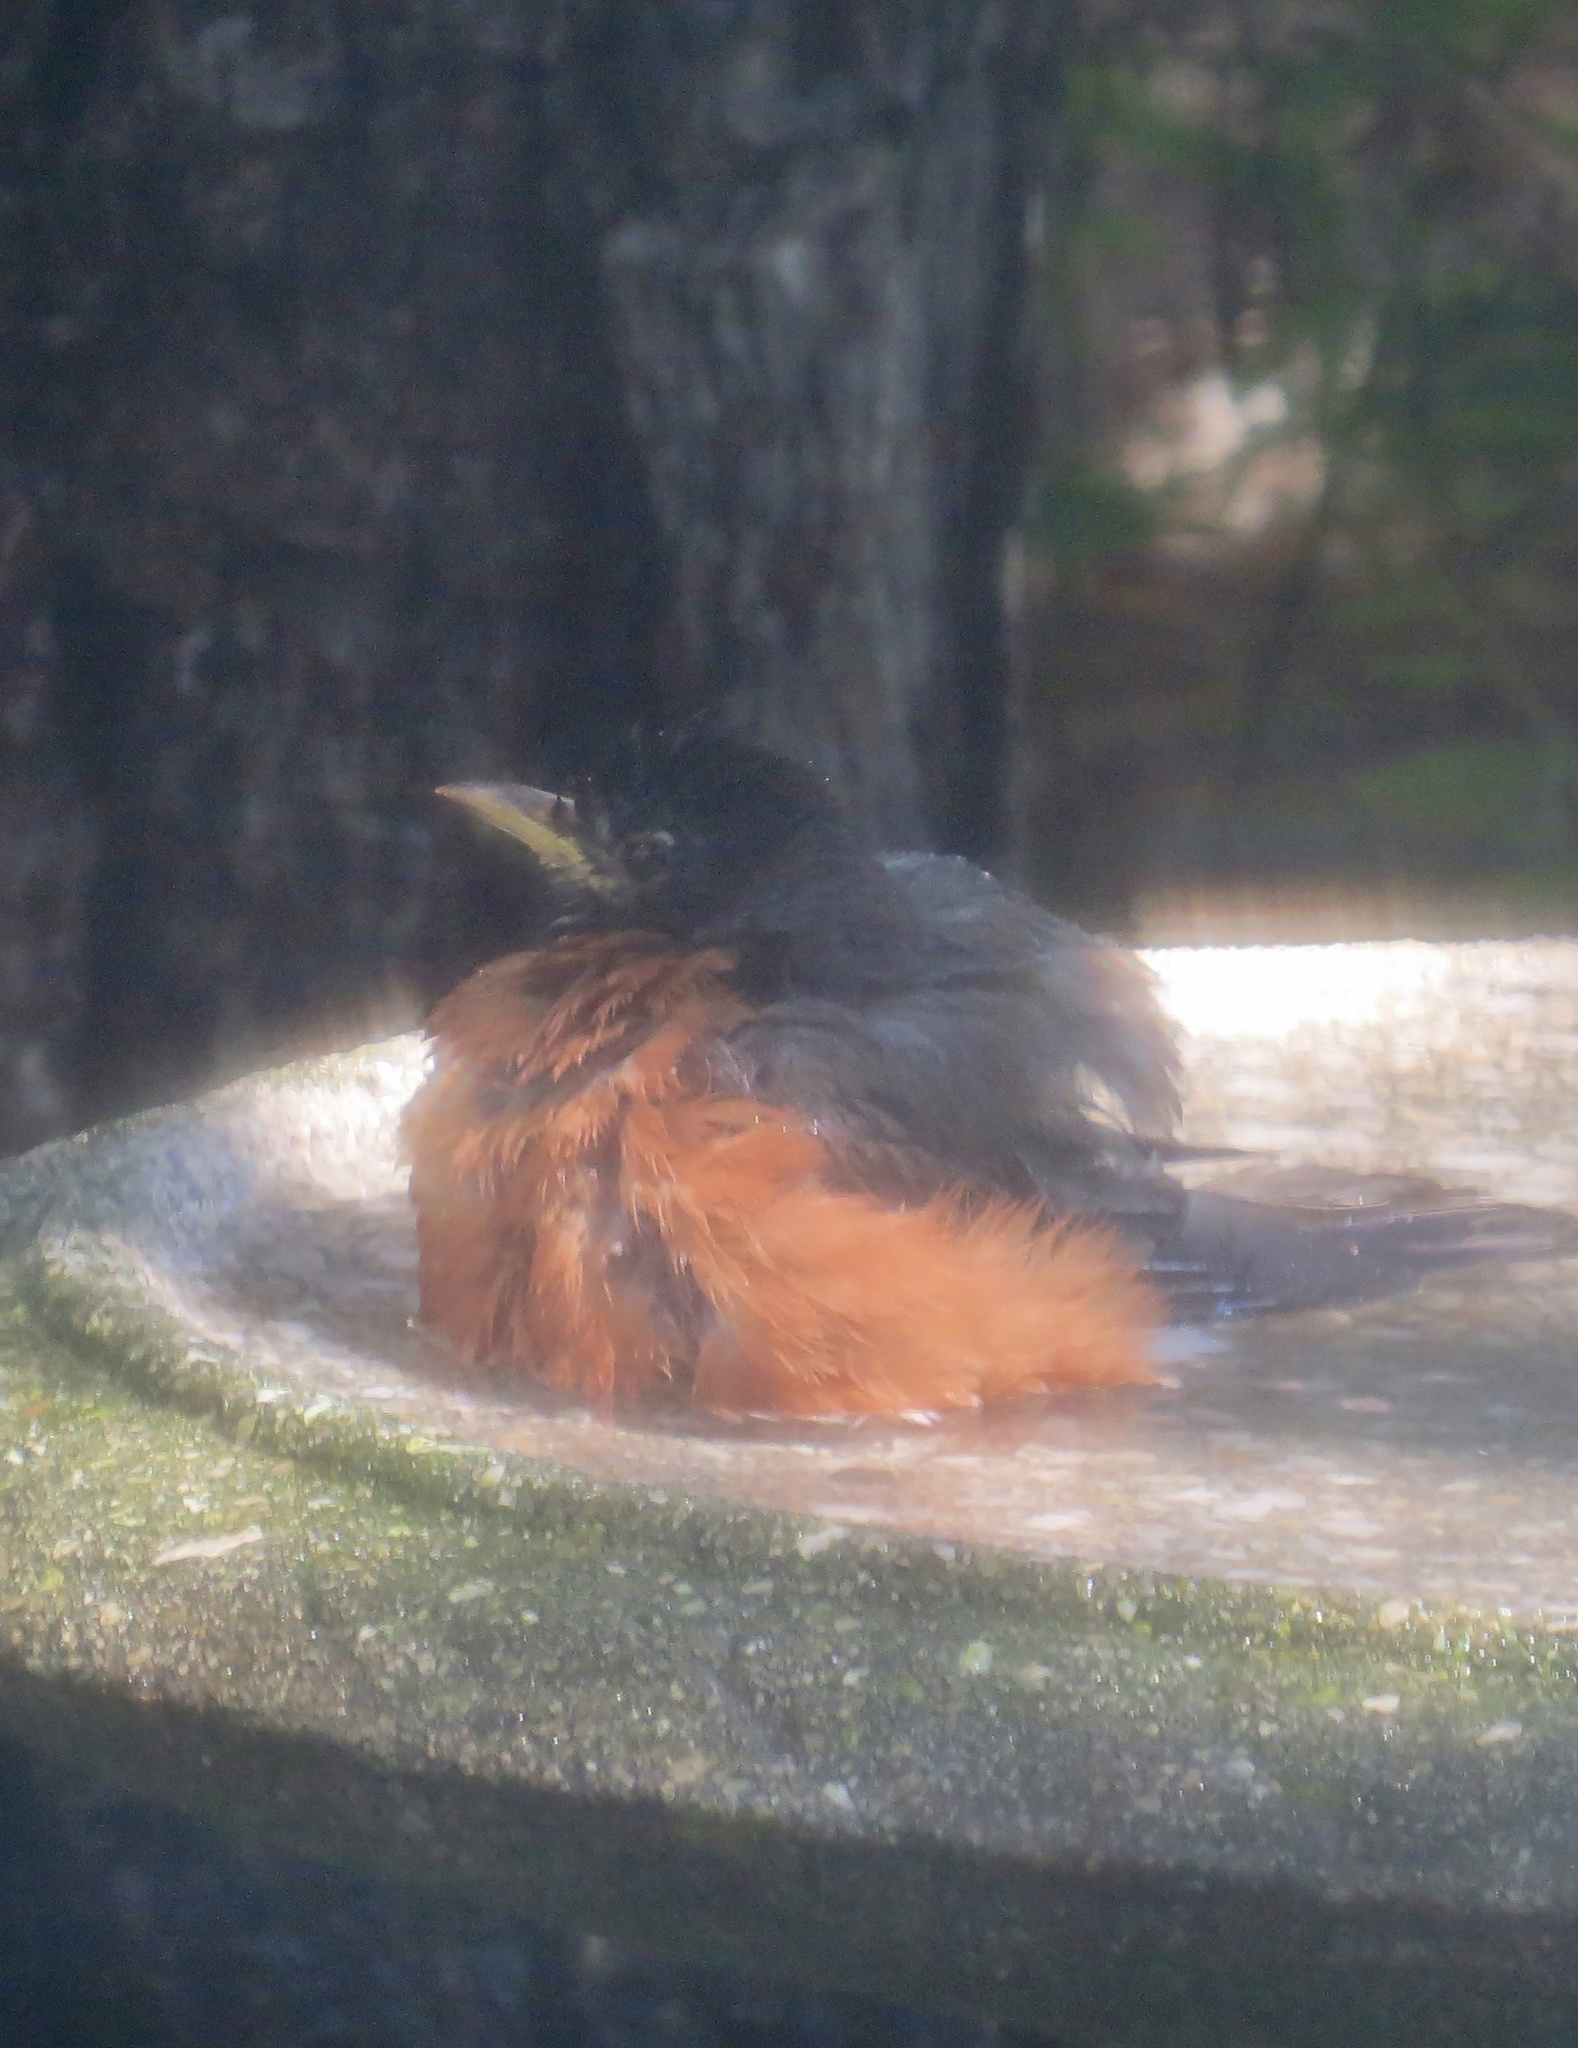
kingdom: Animalia
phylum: Chordata
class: Aves
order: Passeriformes
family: Turdidae
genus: Turdus
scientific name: Turdus migratorius
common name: American robin
